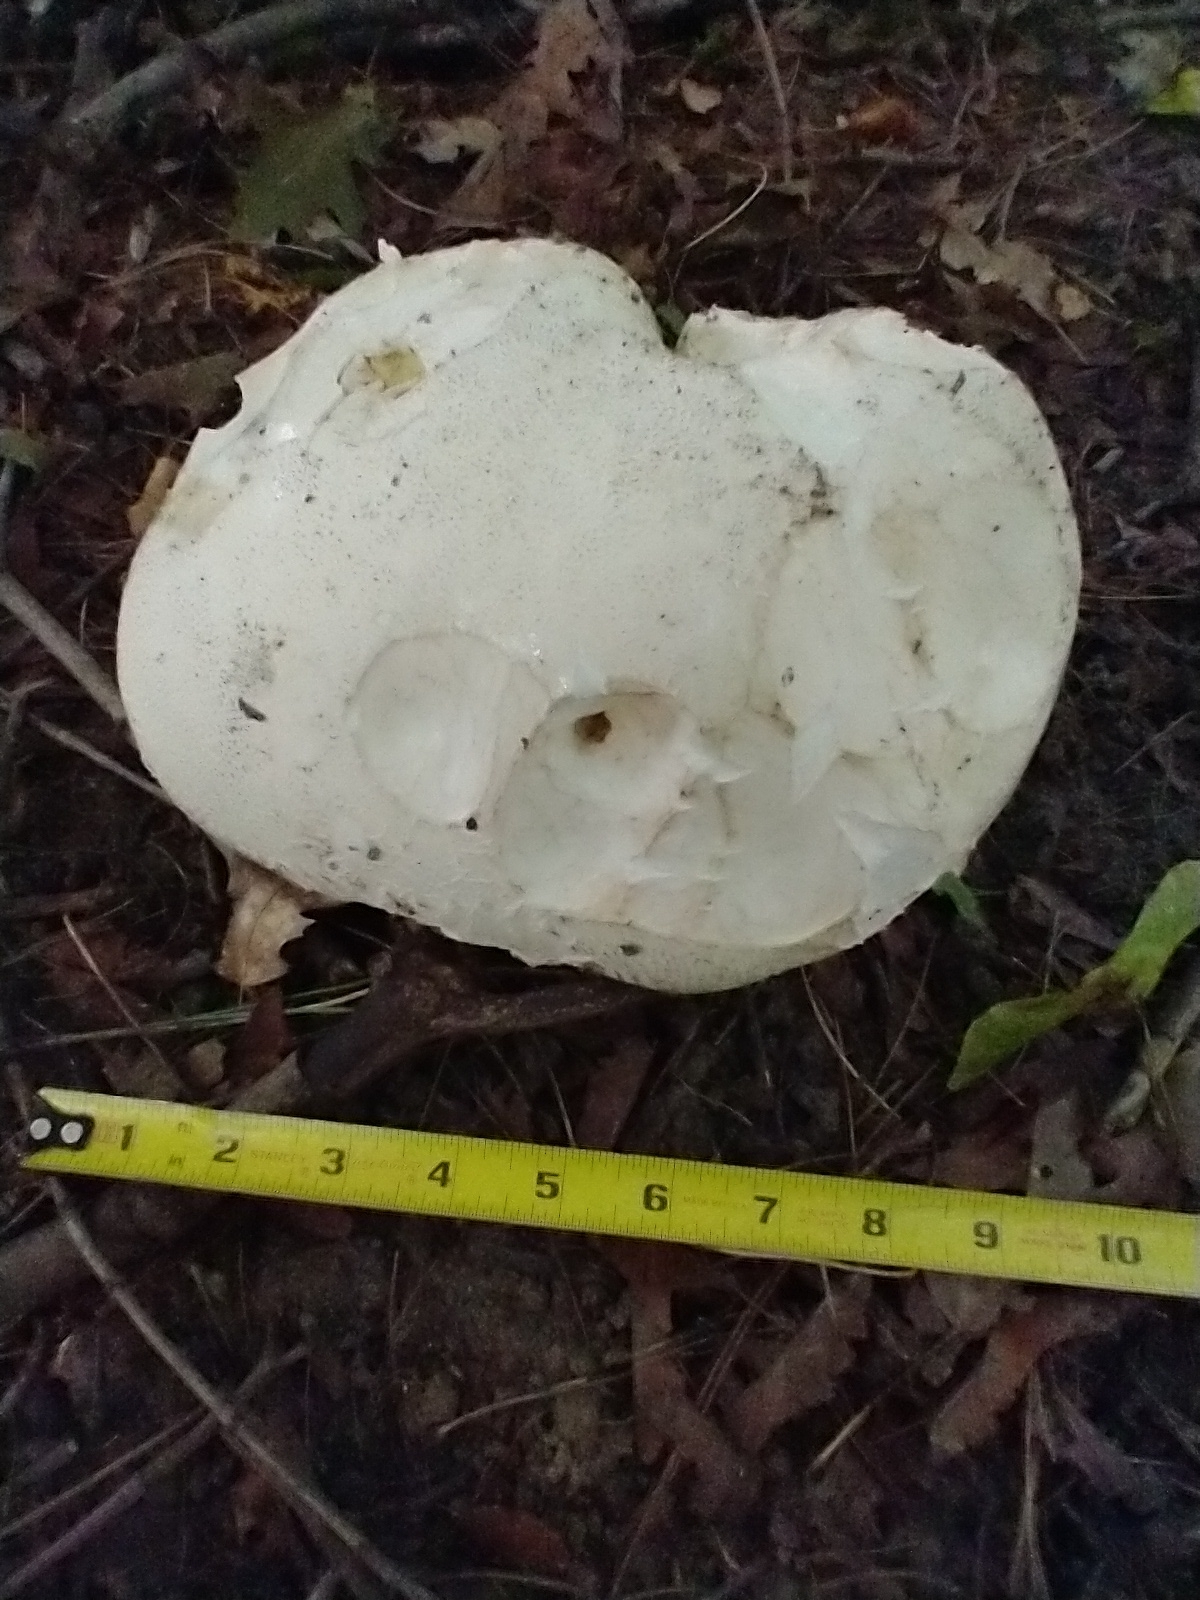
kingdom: Fungi
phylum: Basidiomycota
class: Agaricomycetes
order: Agaricales
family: Lycoperdaceae
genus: Calvatia
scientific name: Calvatia gigantea
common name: Giant puffball
